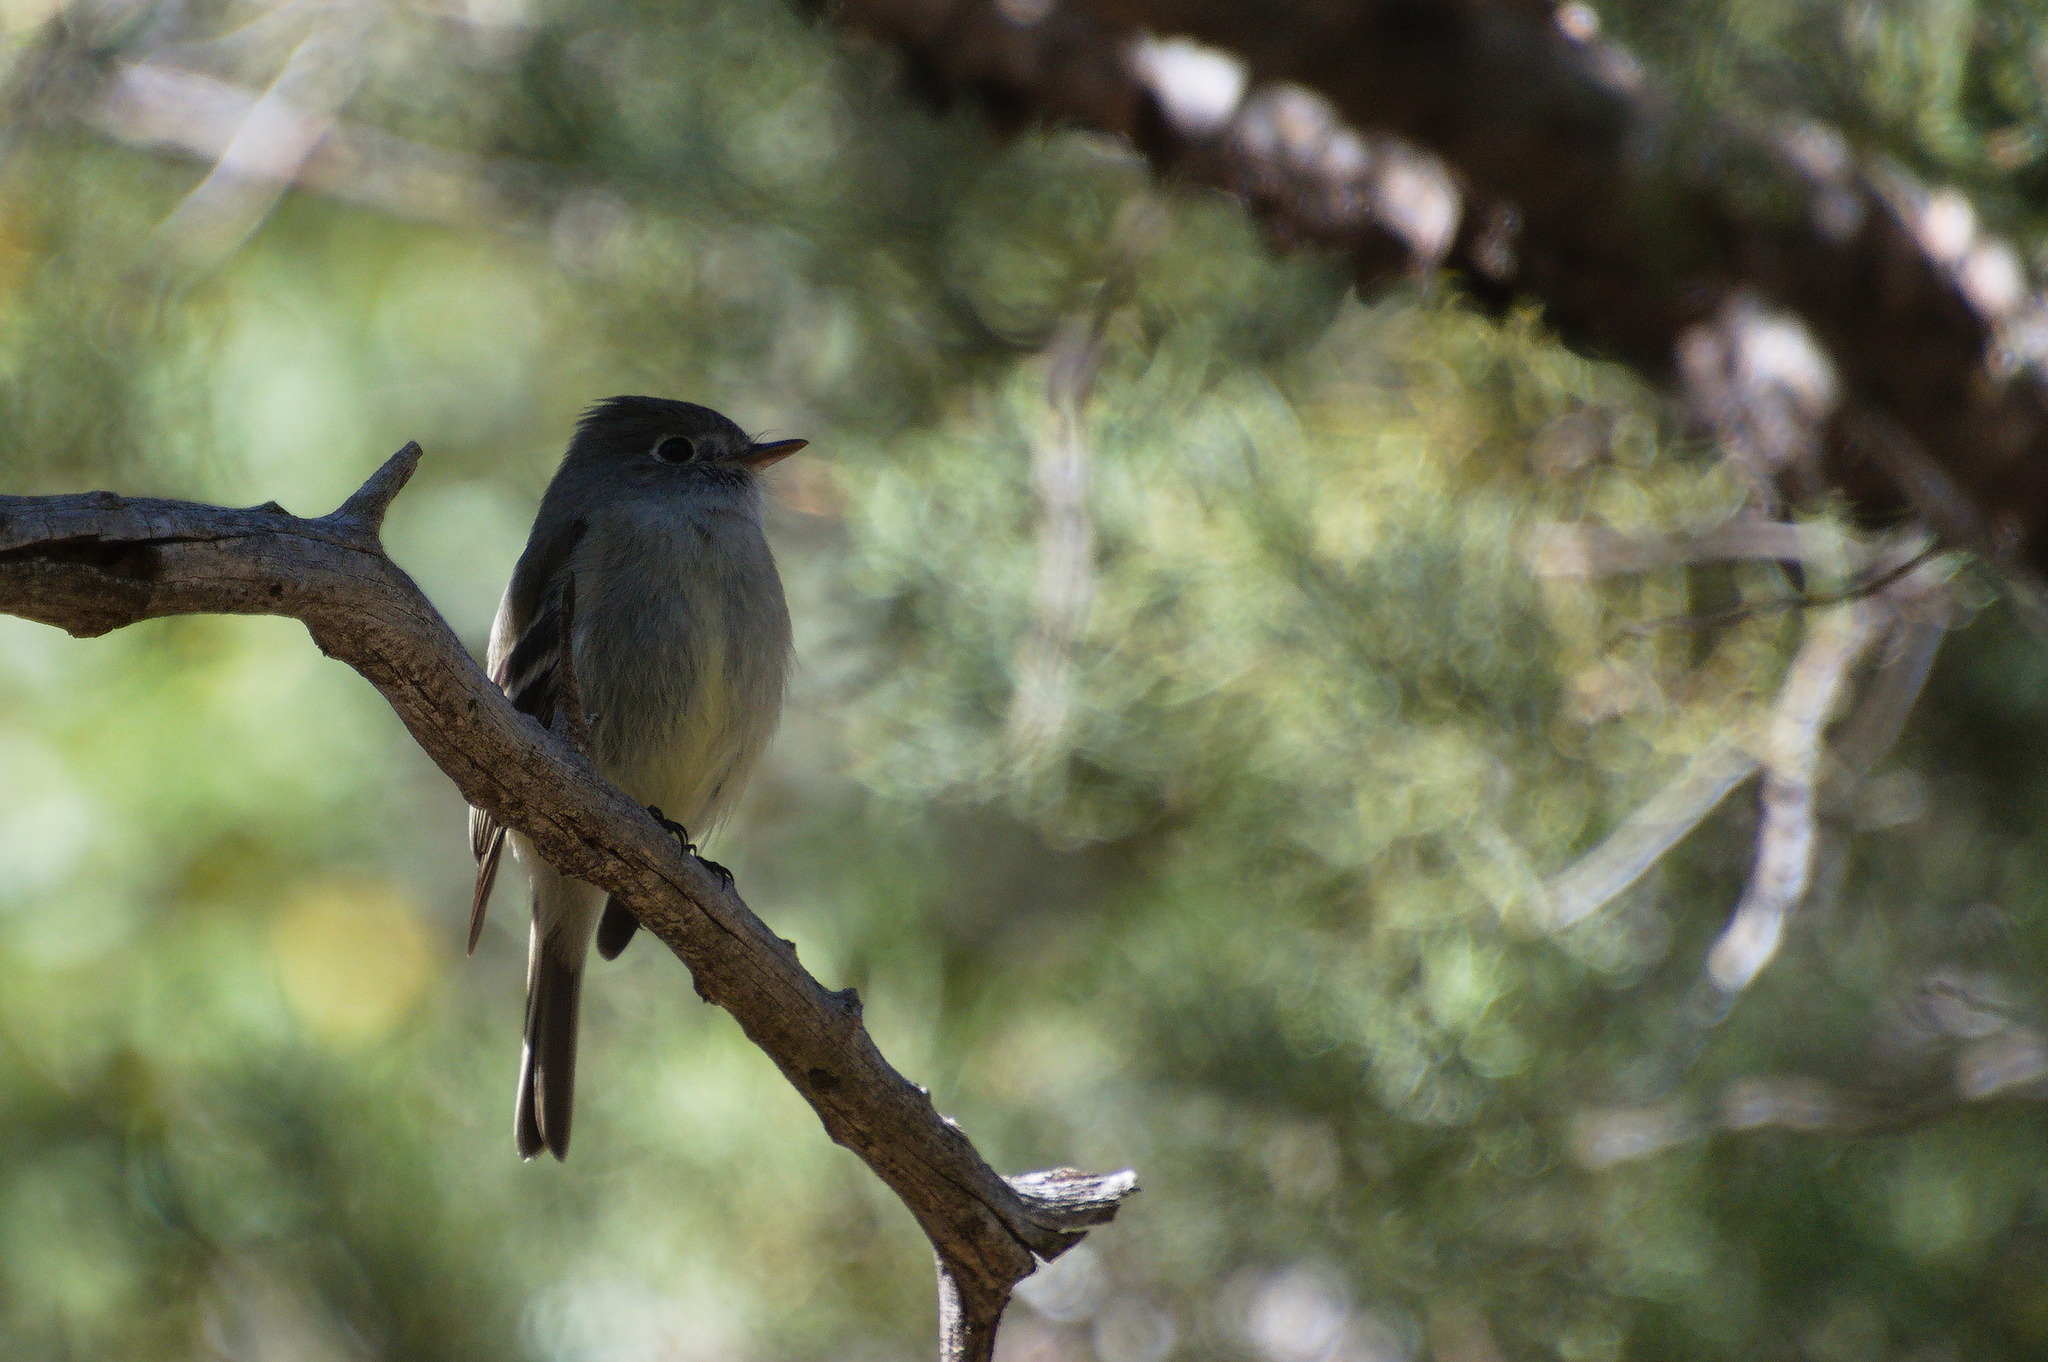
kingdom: Animalia
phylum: Chordata
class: Aves
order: Passeriformes
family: Tyrannidae
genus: Empidonax
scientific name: Empidonax hammondii
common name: Hammond's flycatcher
